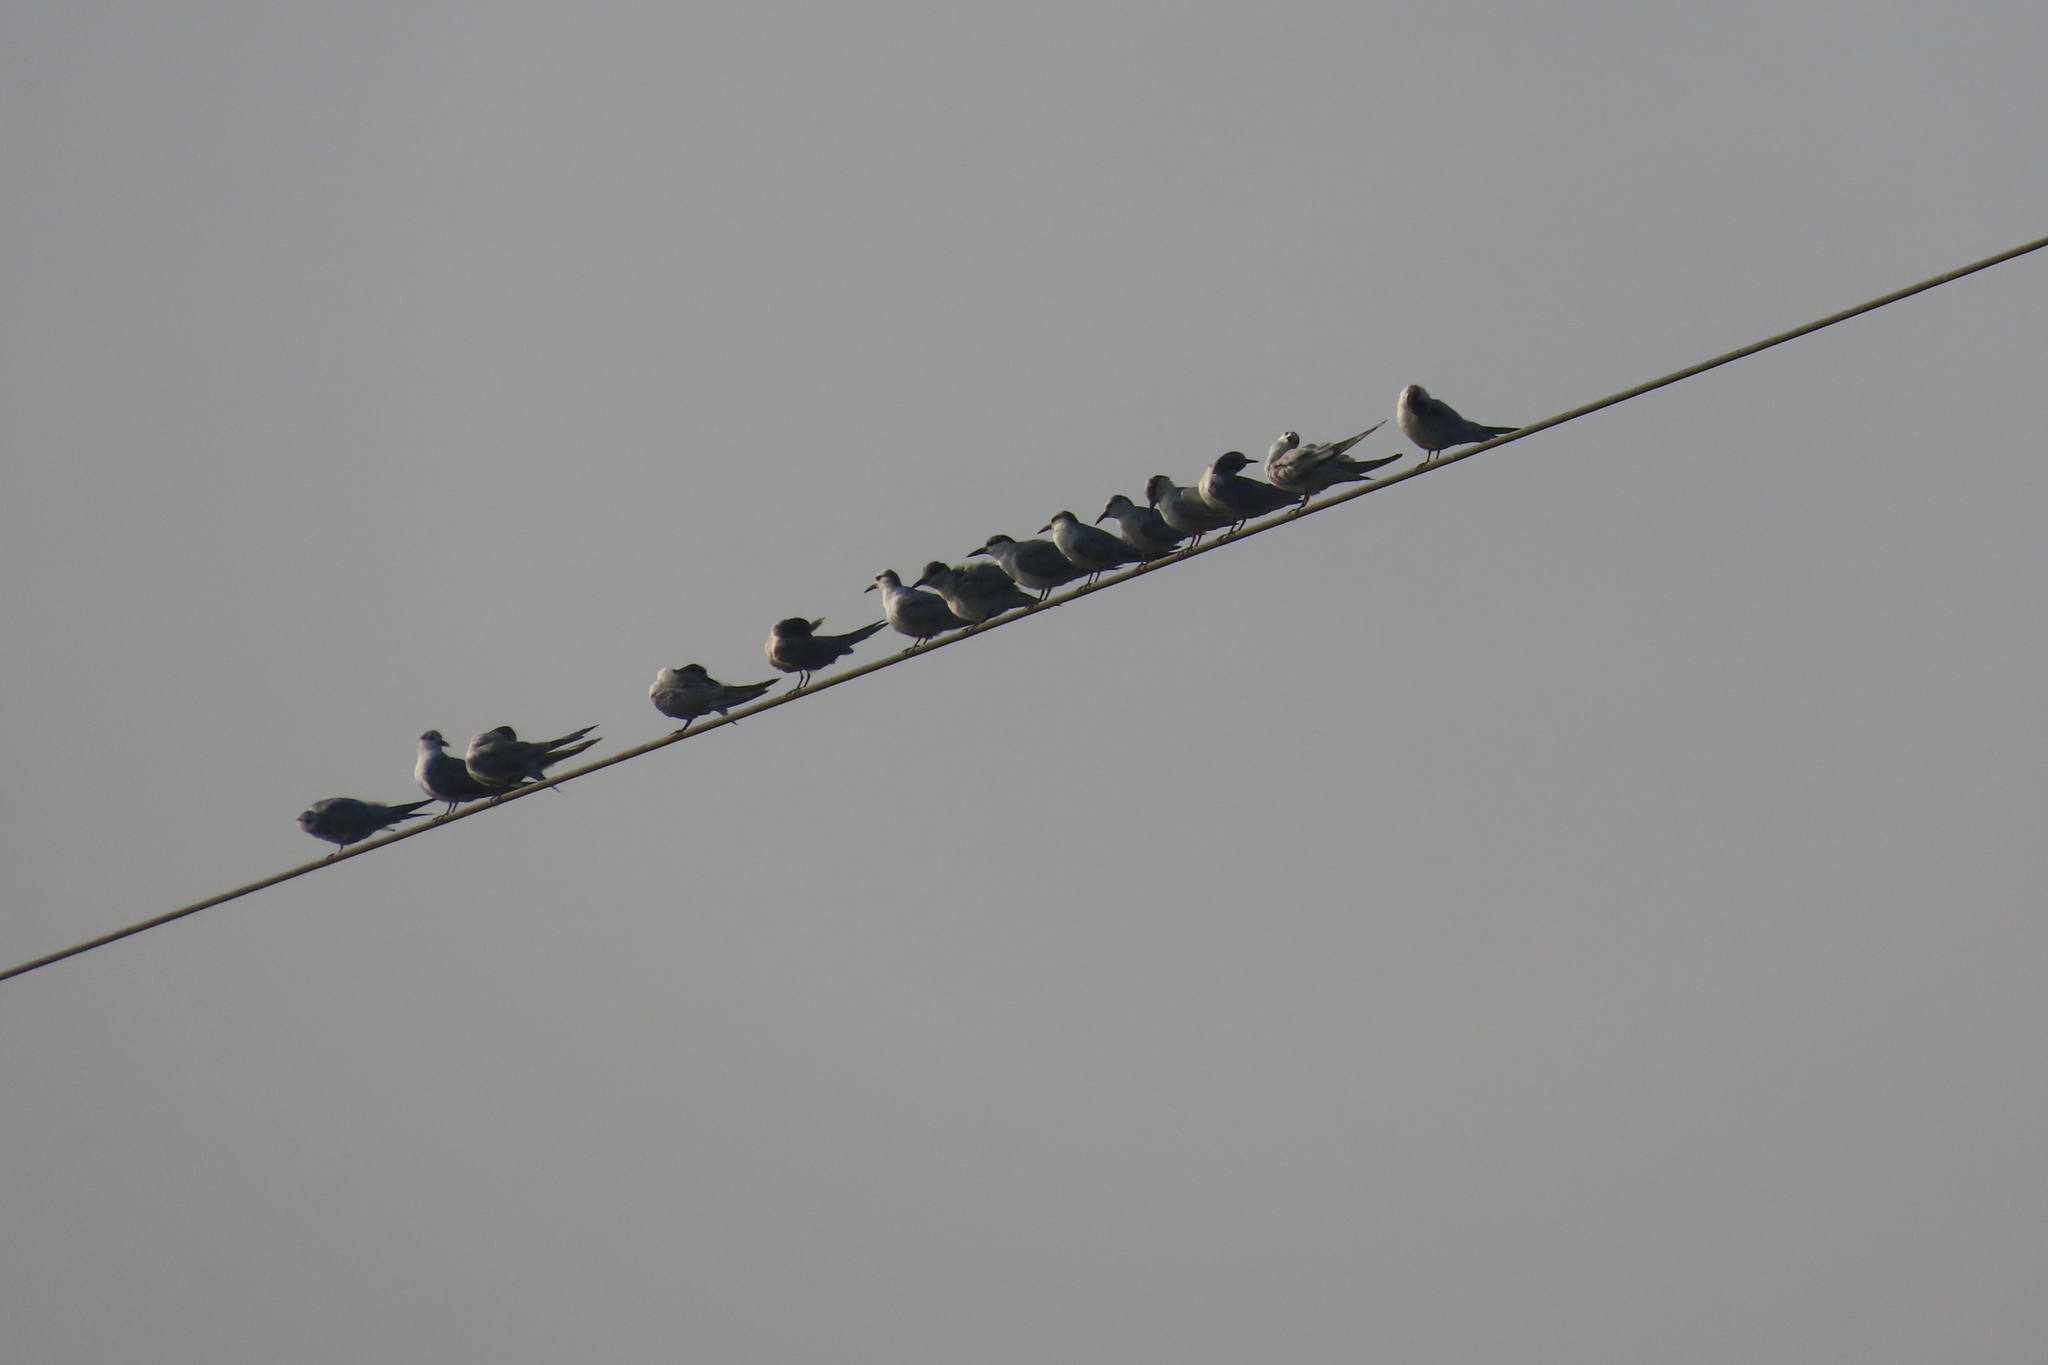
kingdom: Animalia
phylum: Chordata
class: Aves
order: Charadriiformes
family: Laridae
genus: Chlidonias
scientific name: Chlidonias hybrida
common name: Whiskered tern
